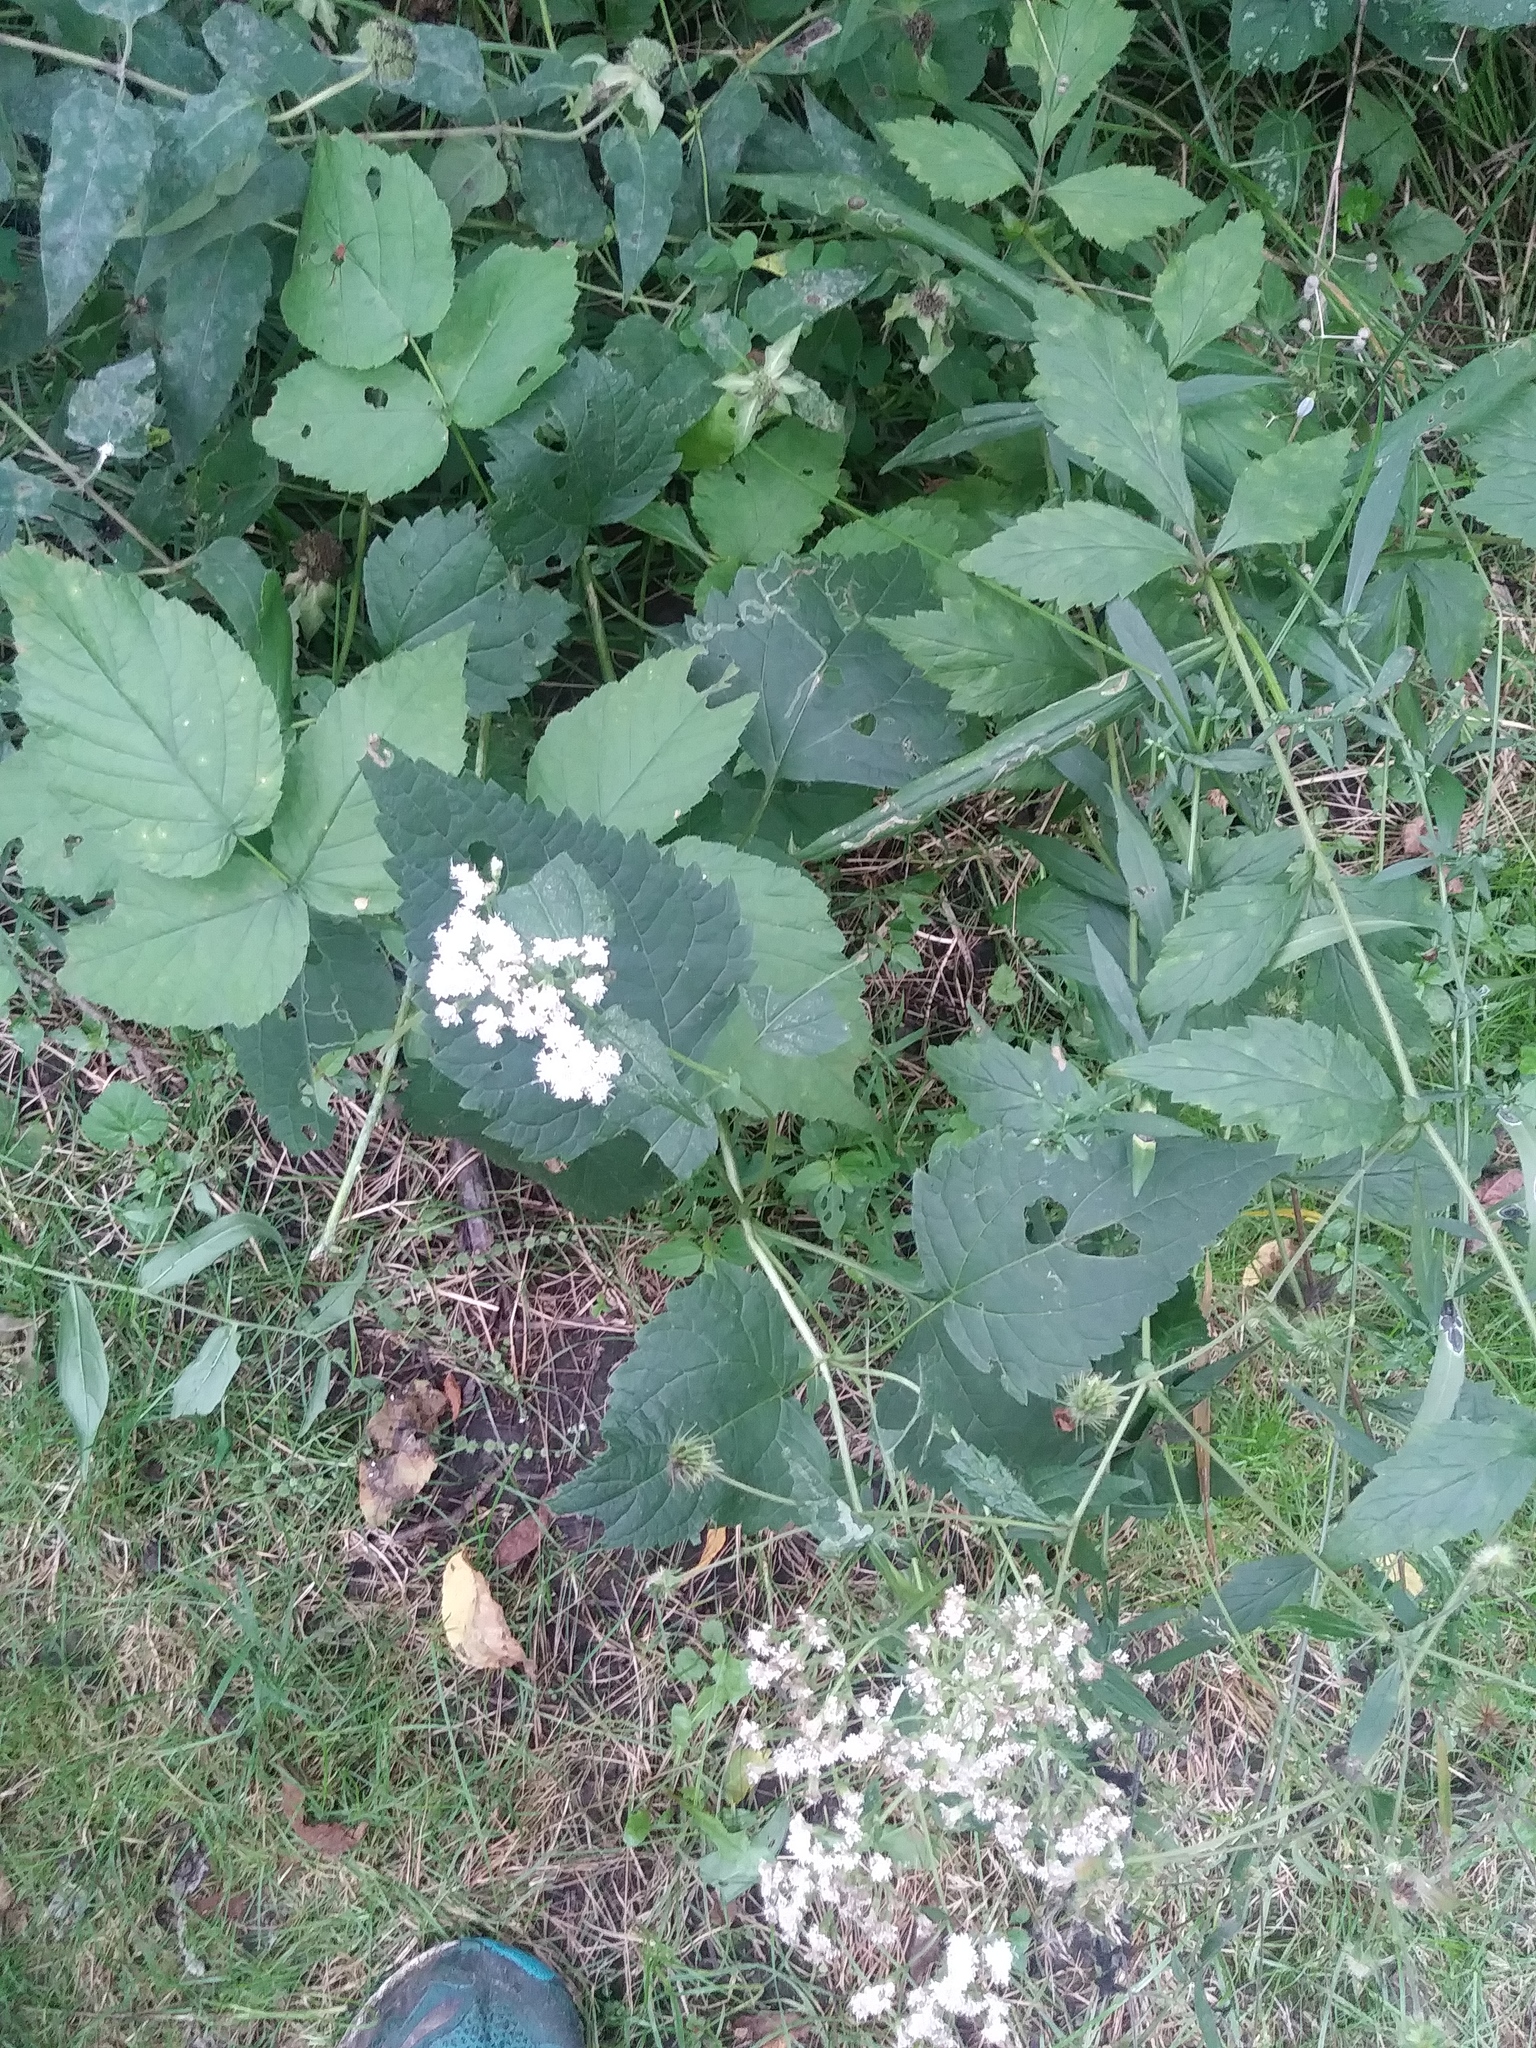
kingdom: Plantae
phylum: Tracheophyta
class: Magnoliopsida
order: Asterales
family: Asteraceae
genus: Ageratina
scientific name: Ageratina altissima
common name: White snakeroot
